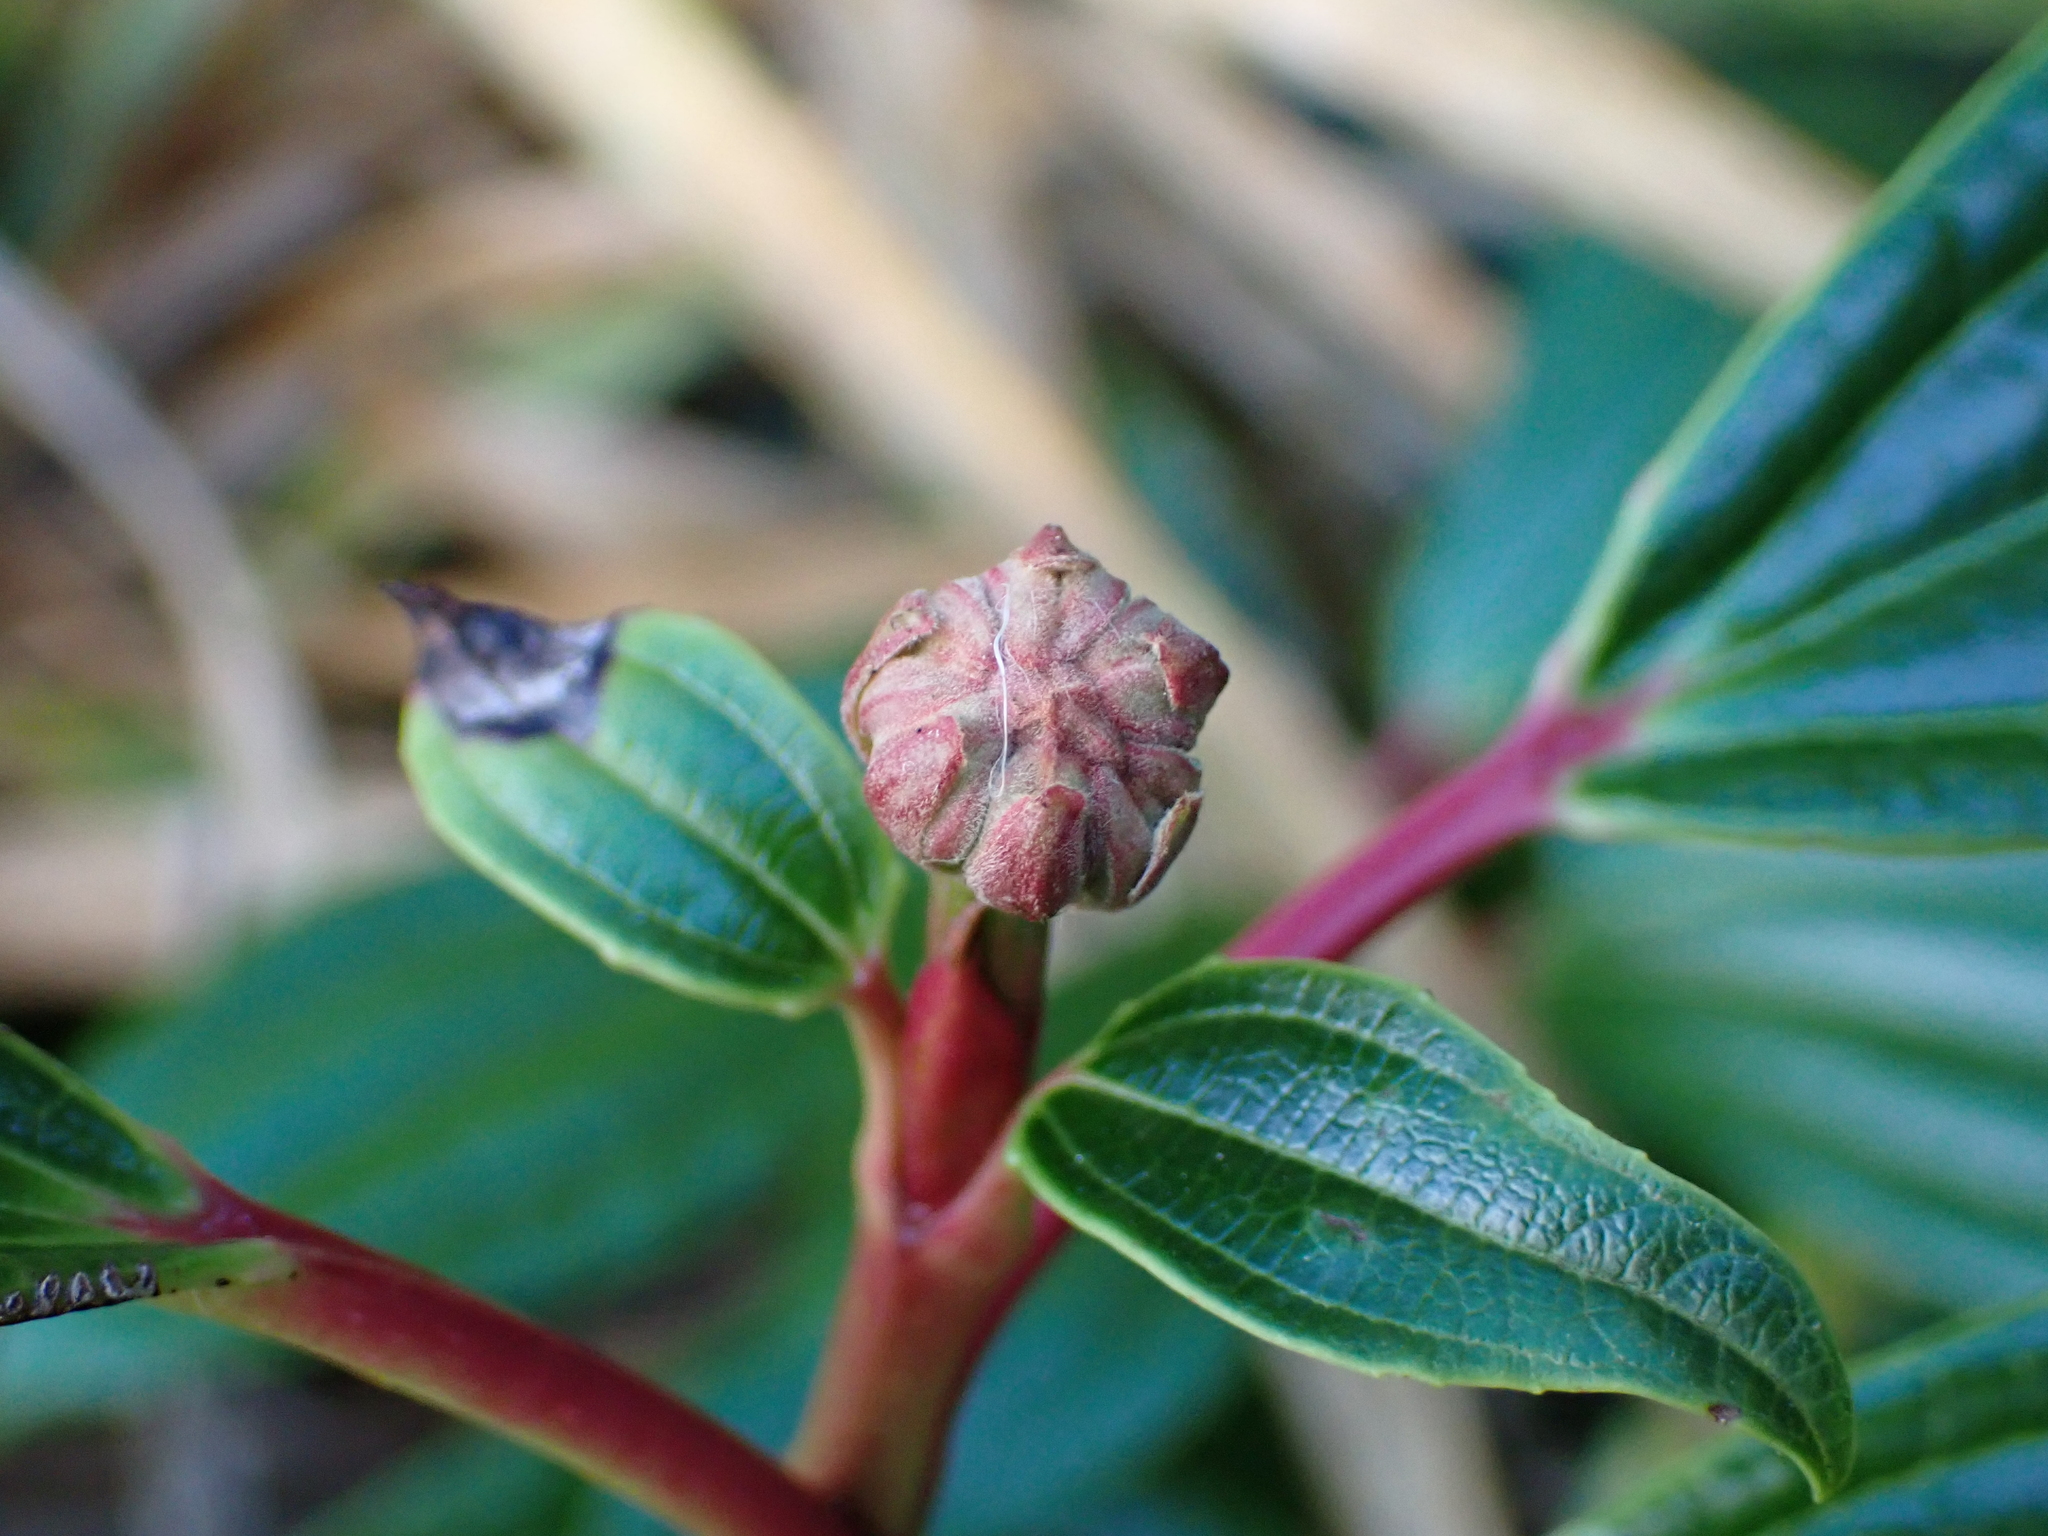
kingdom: Plantae
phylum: Tracheophyta
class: Magnoliopsida
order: Dipsacales
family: Viburnaceae
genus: Viburnum
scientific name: Viburnum davidi
